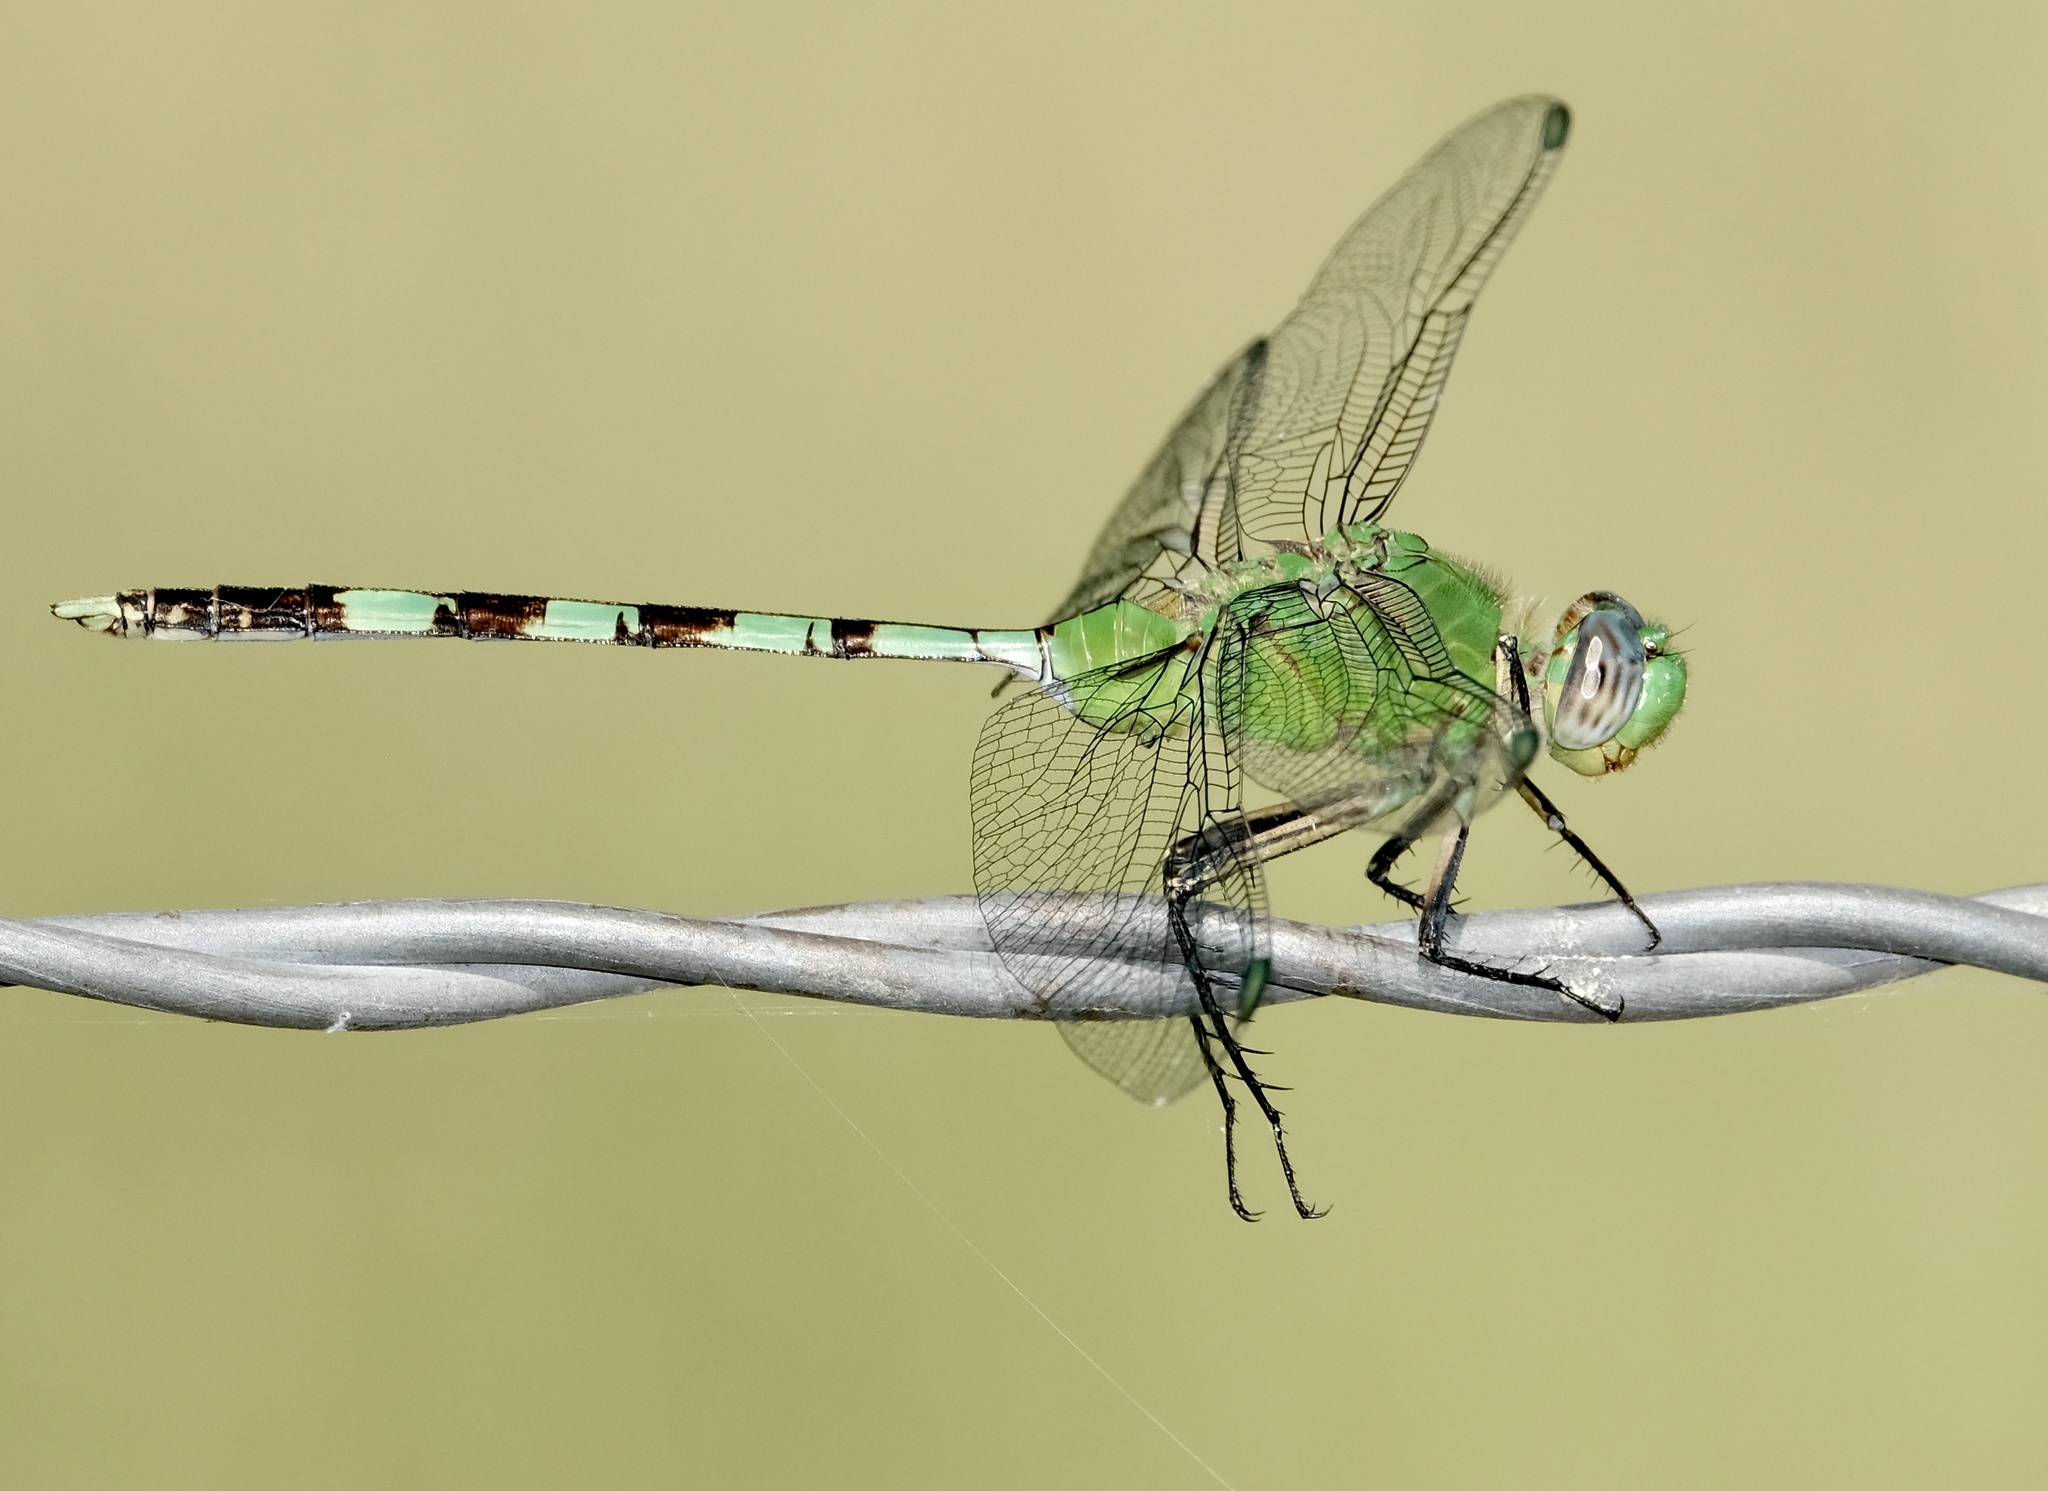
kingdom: Animalia
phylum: Arthropoda
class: Insecta
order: Odonata
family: Libellulidae
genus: Erythemis
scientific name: Erythemis vesiculosa
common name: Great pondhawk
